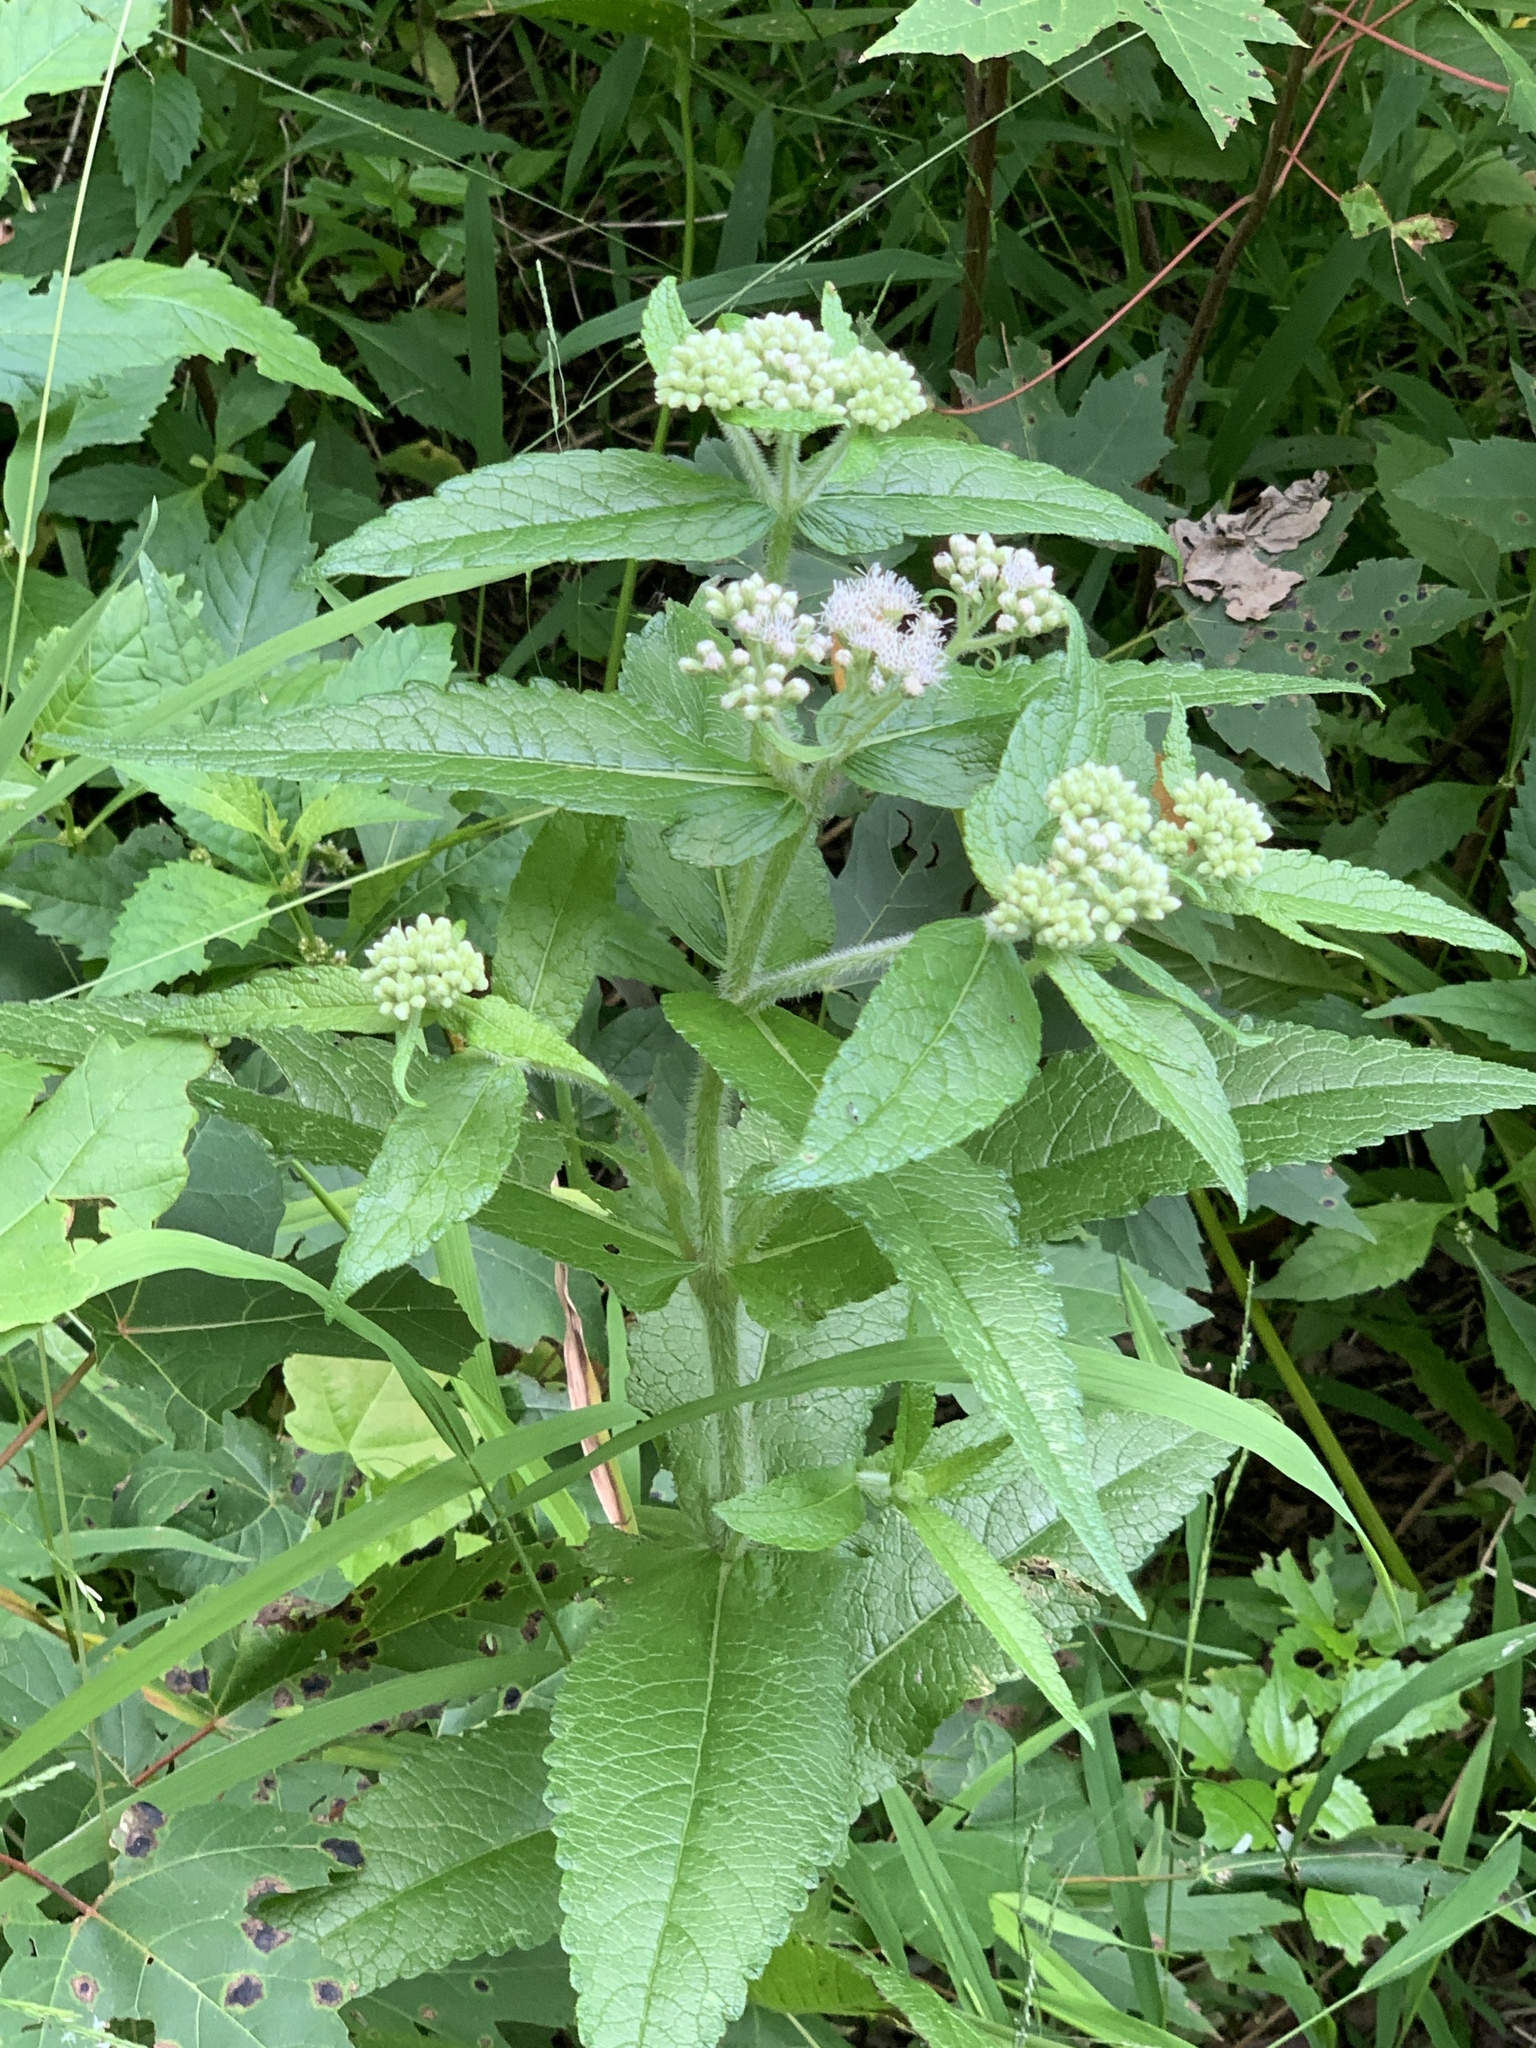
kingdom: Plantae
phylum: Tracheophyta
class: Magnoliopsida
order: Asterales
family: Asteraceae
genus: Eupatorium
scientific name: Eupatorium perfoliatum
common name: Boneset
